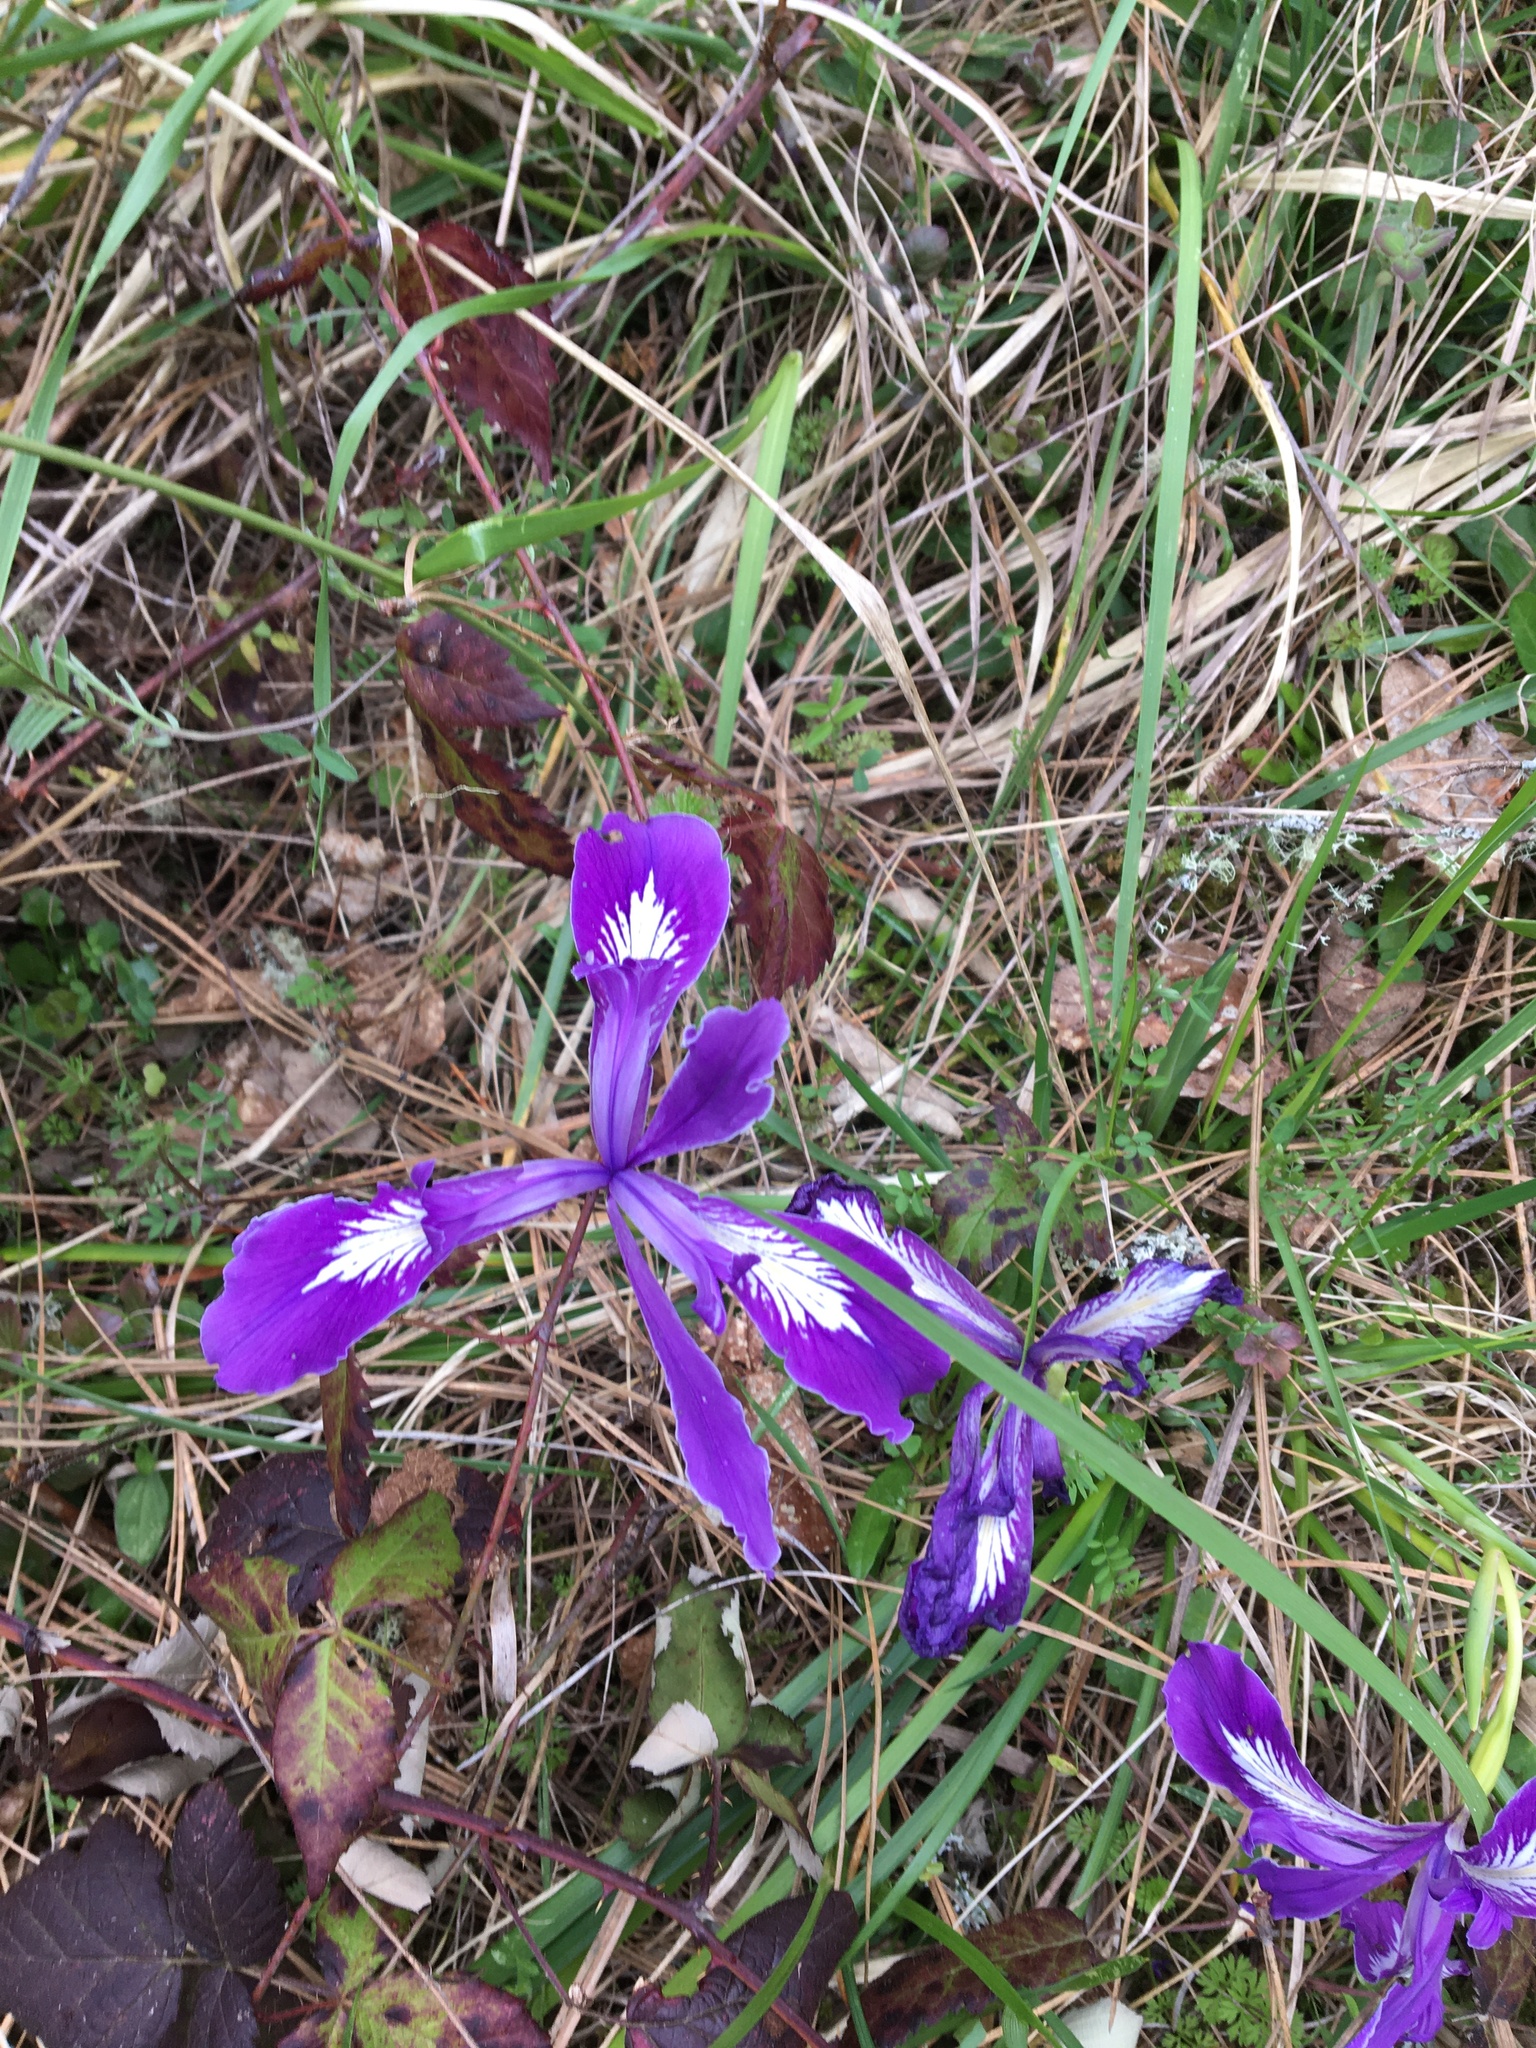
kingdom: Plantae
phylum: Tracheophyta
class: Liliopsida
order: Asparagales
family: Iridaceae
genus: Iris
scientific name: Iris tenax
